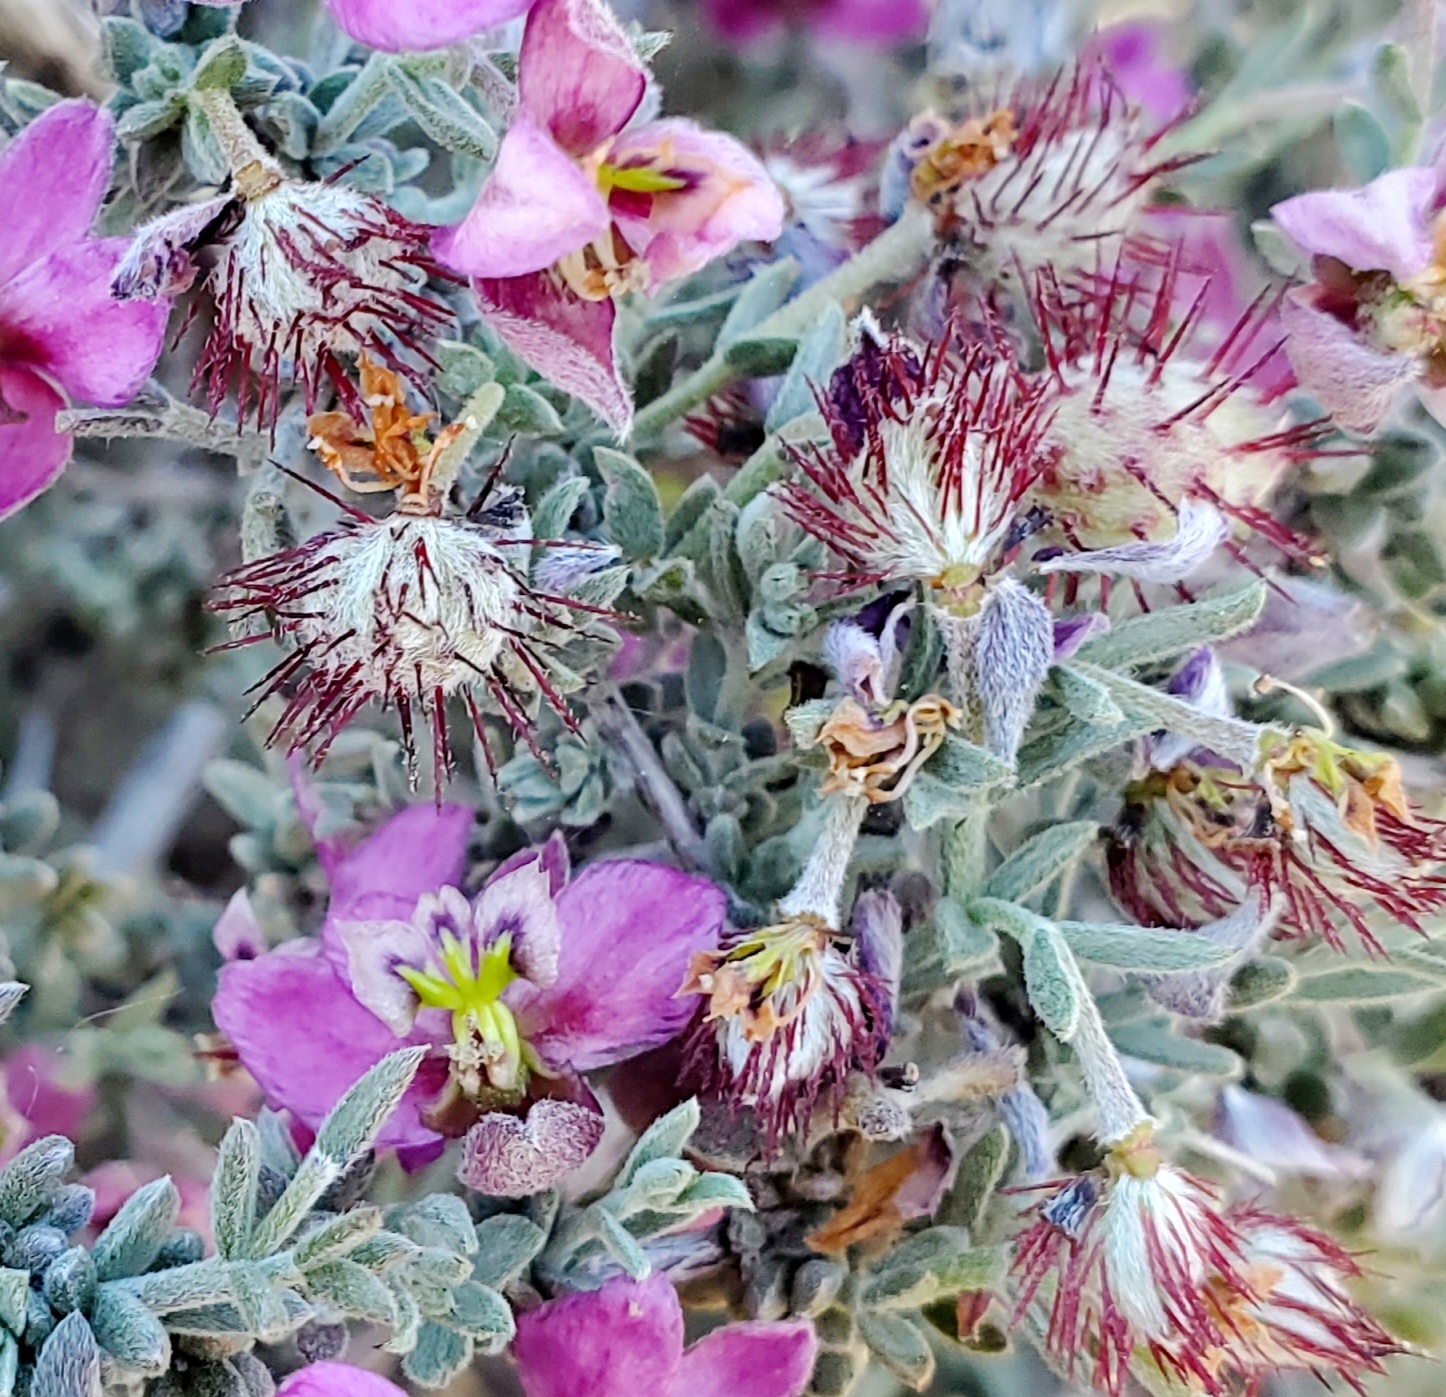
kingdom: Plantae
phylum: Tracheophyta
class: Magnoliopsida
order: Zygophyllales
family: Krameriaceae
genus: Krameria
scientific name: Krameria erecta
